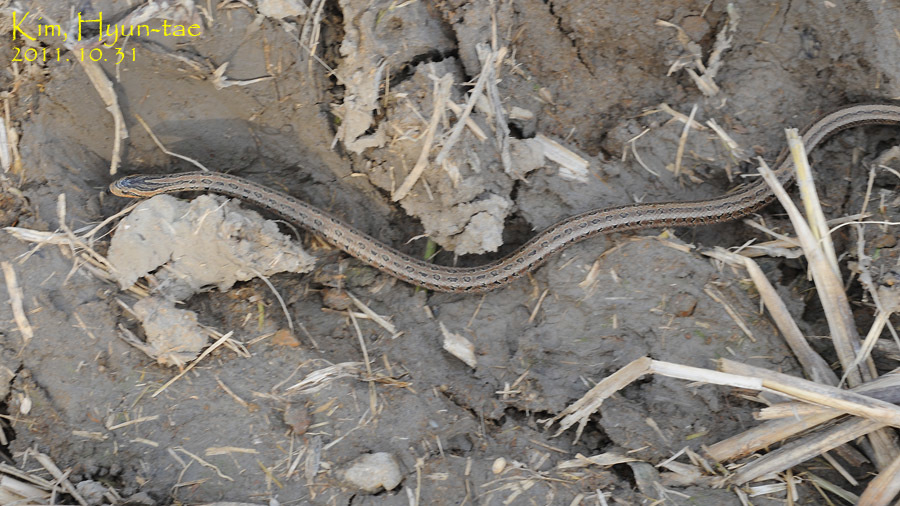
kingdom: Animalia
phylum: Chordata
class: Squamata
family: Colubridae
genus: Oocatochus
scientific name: Oocatochus rufodorsatus
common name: Frog-eating rat snake
